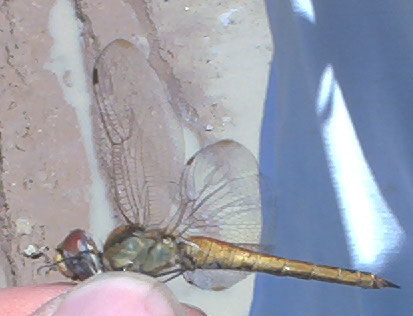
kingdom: Animalia
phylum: Arthropoda
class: Insecta
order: Odonata
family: Libellulidae
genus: Pantala
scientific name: Pantala flavescens
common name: Wandering glider
